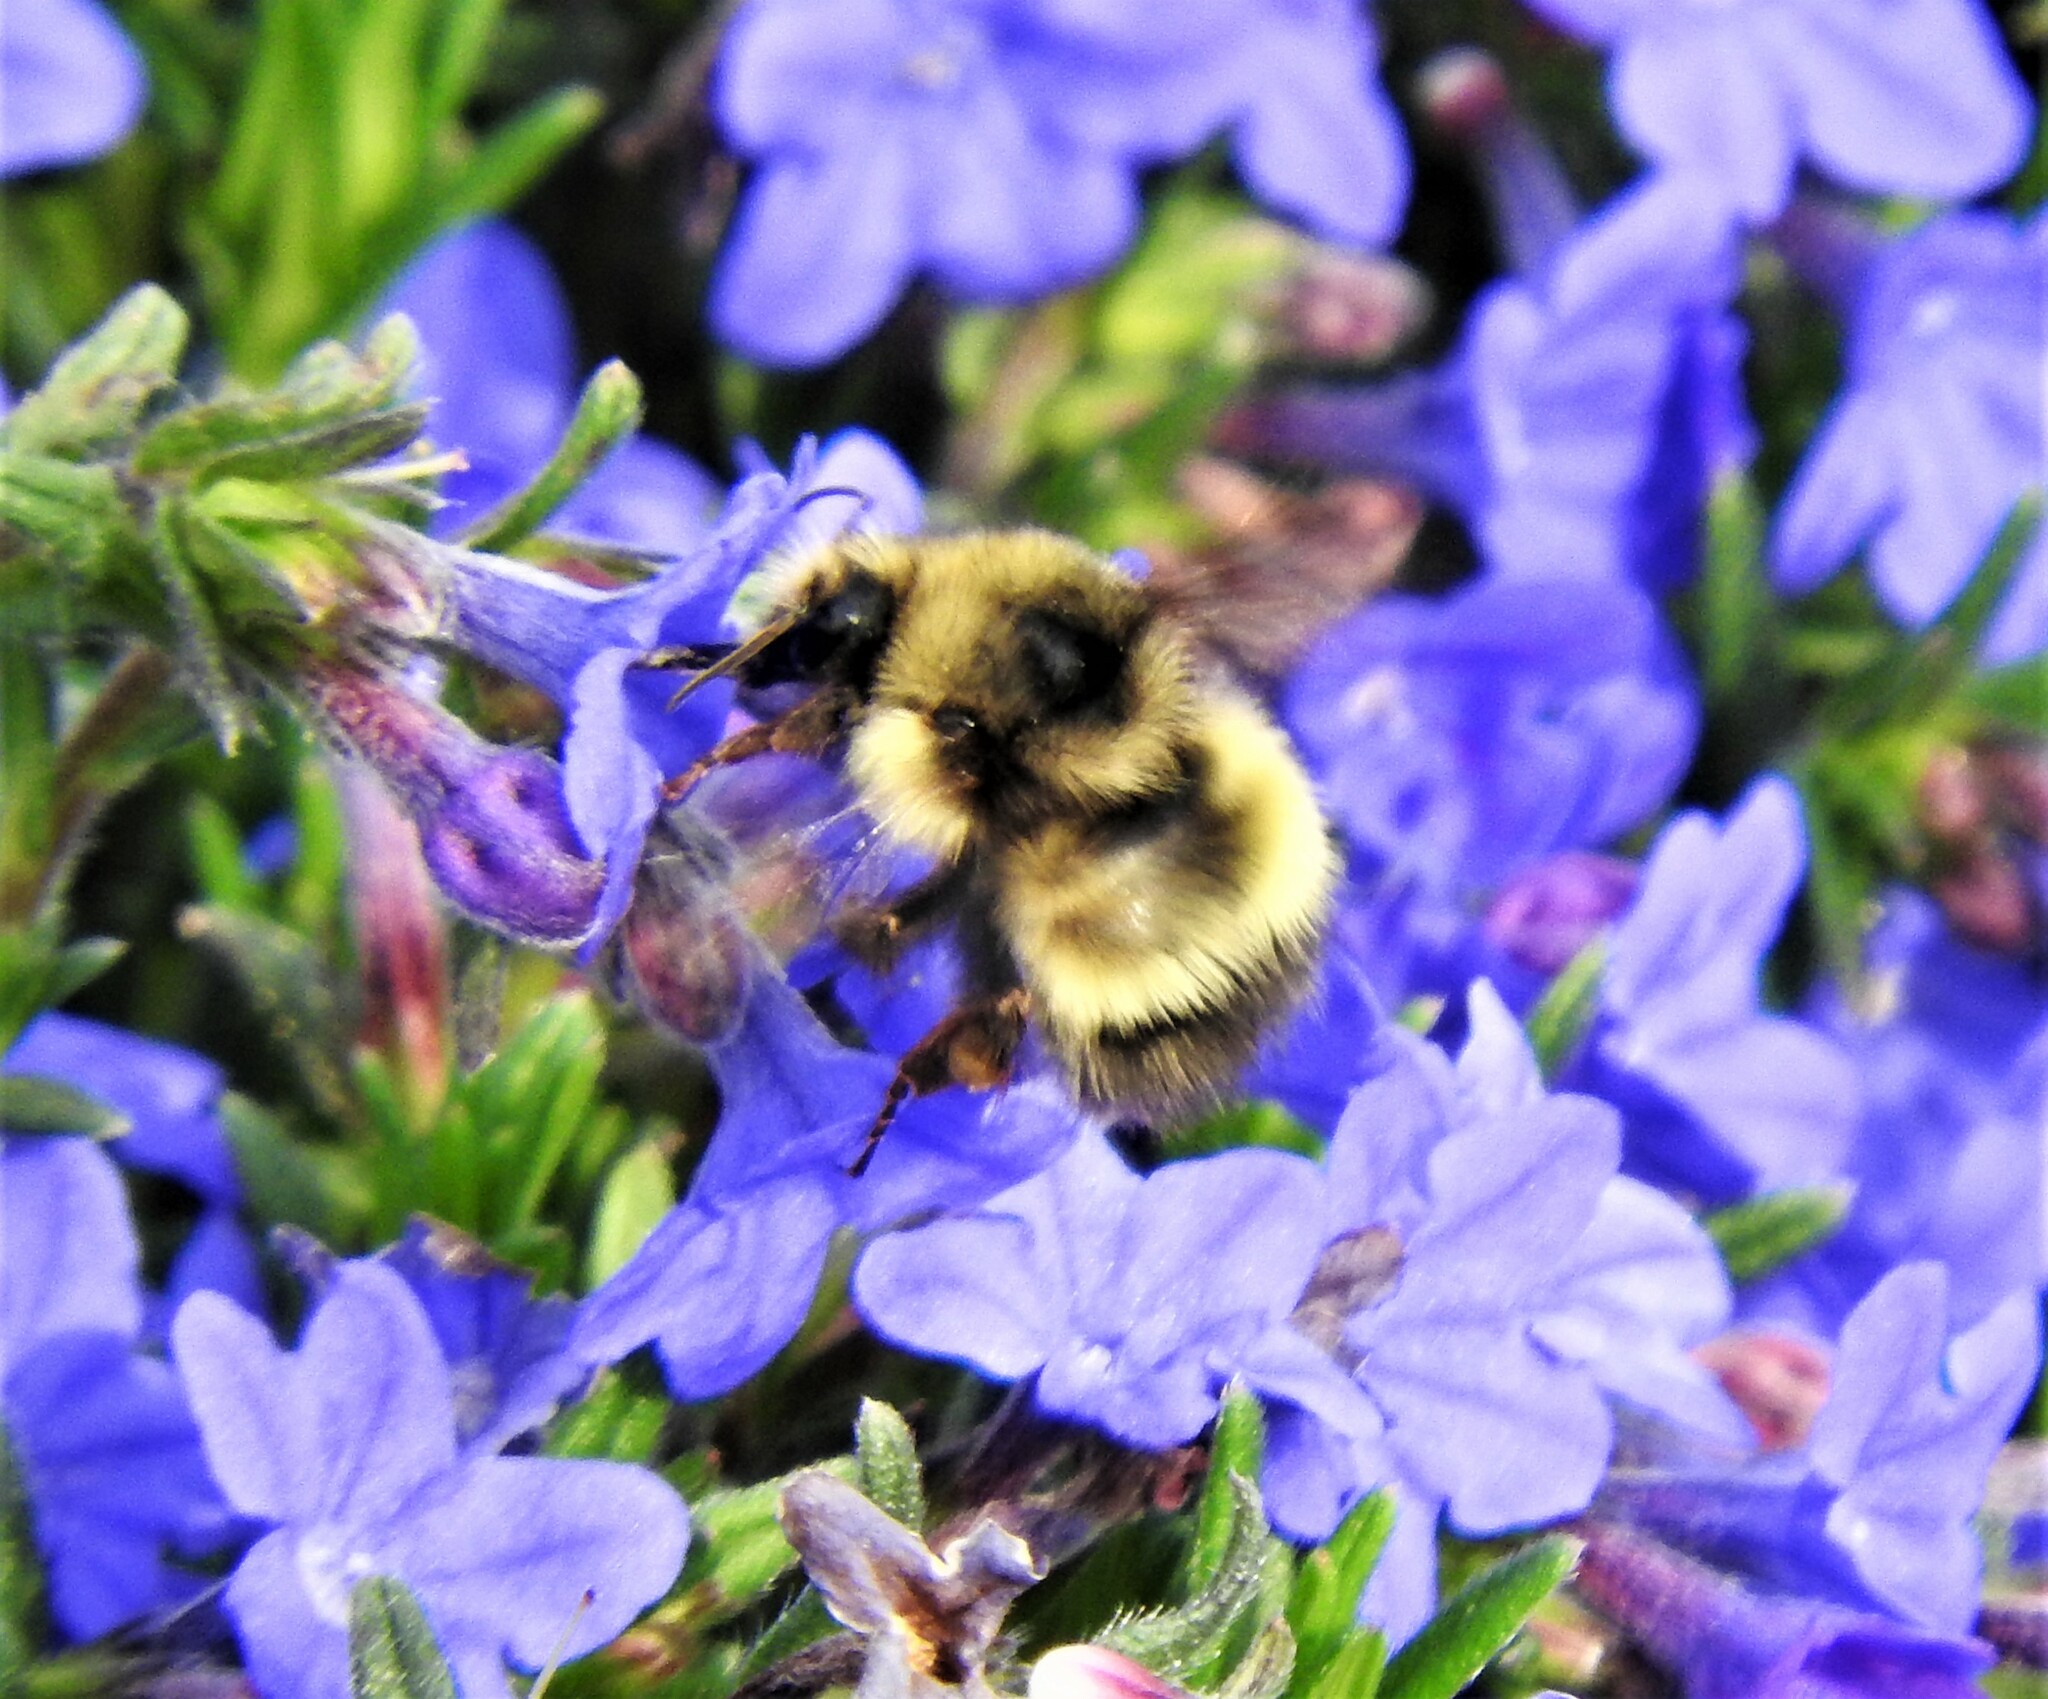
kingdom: Animalia
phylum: Arthropoda
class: Insecta
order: Hymenoptera
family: Apidae
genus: Bombus
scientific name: Bombus flavifrons
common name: Yellow head bumble bee
